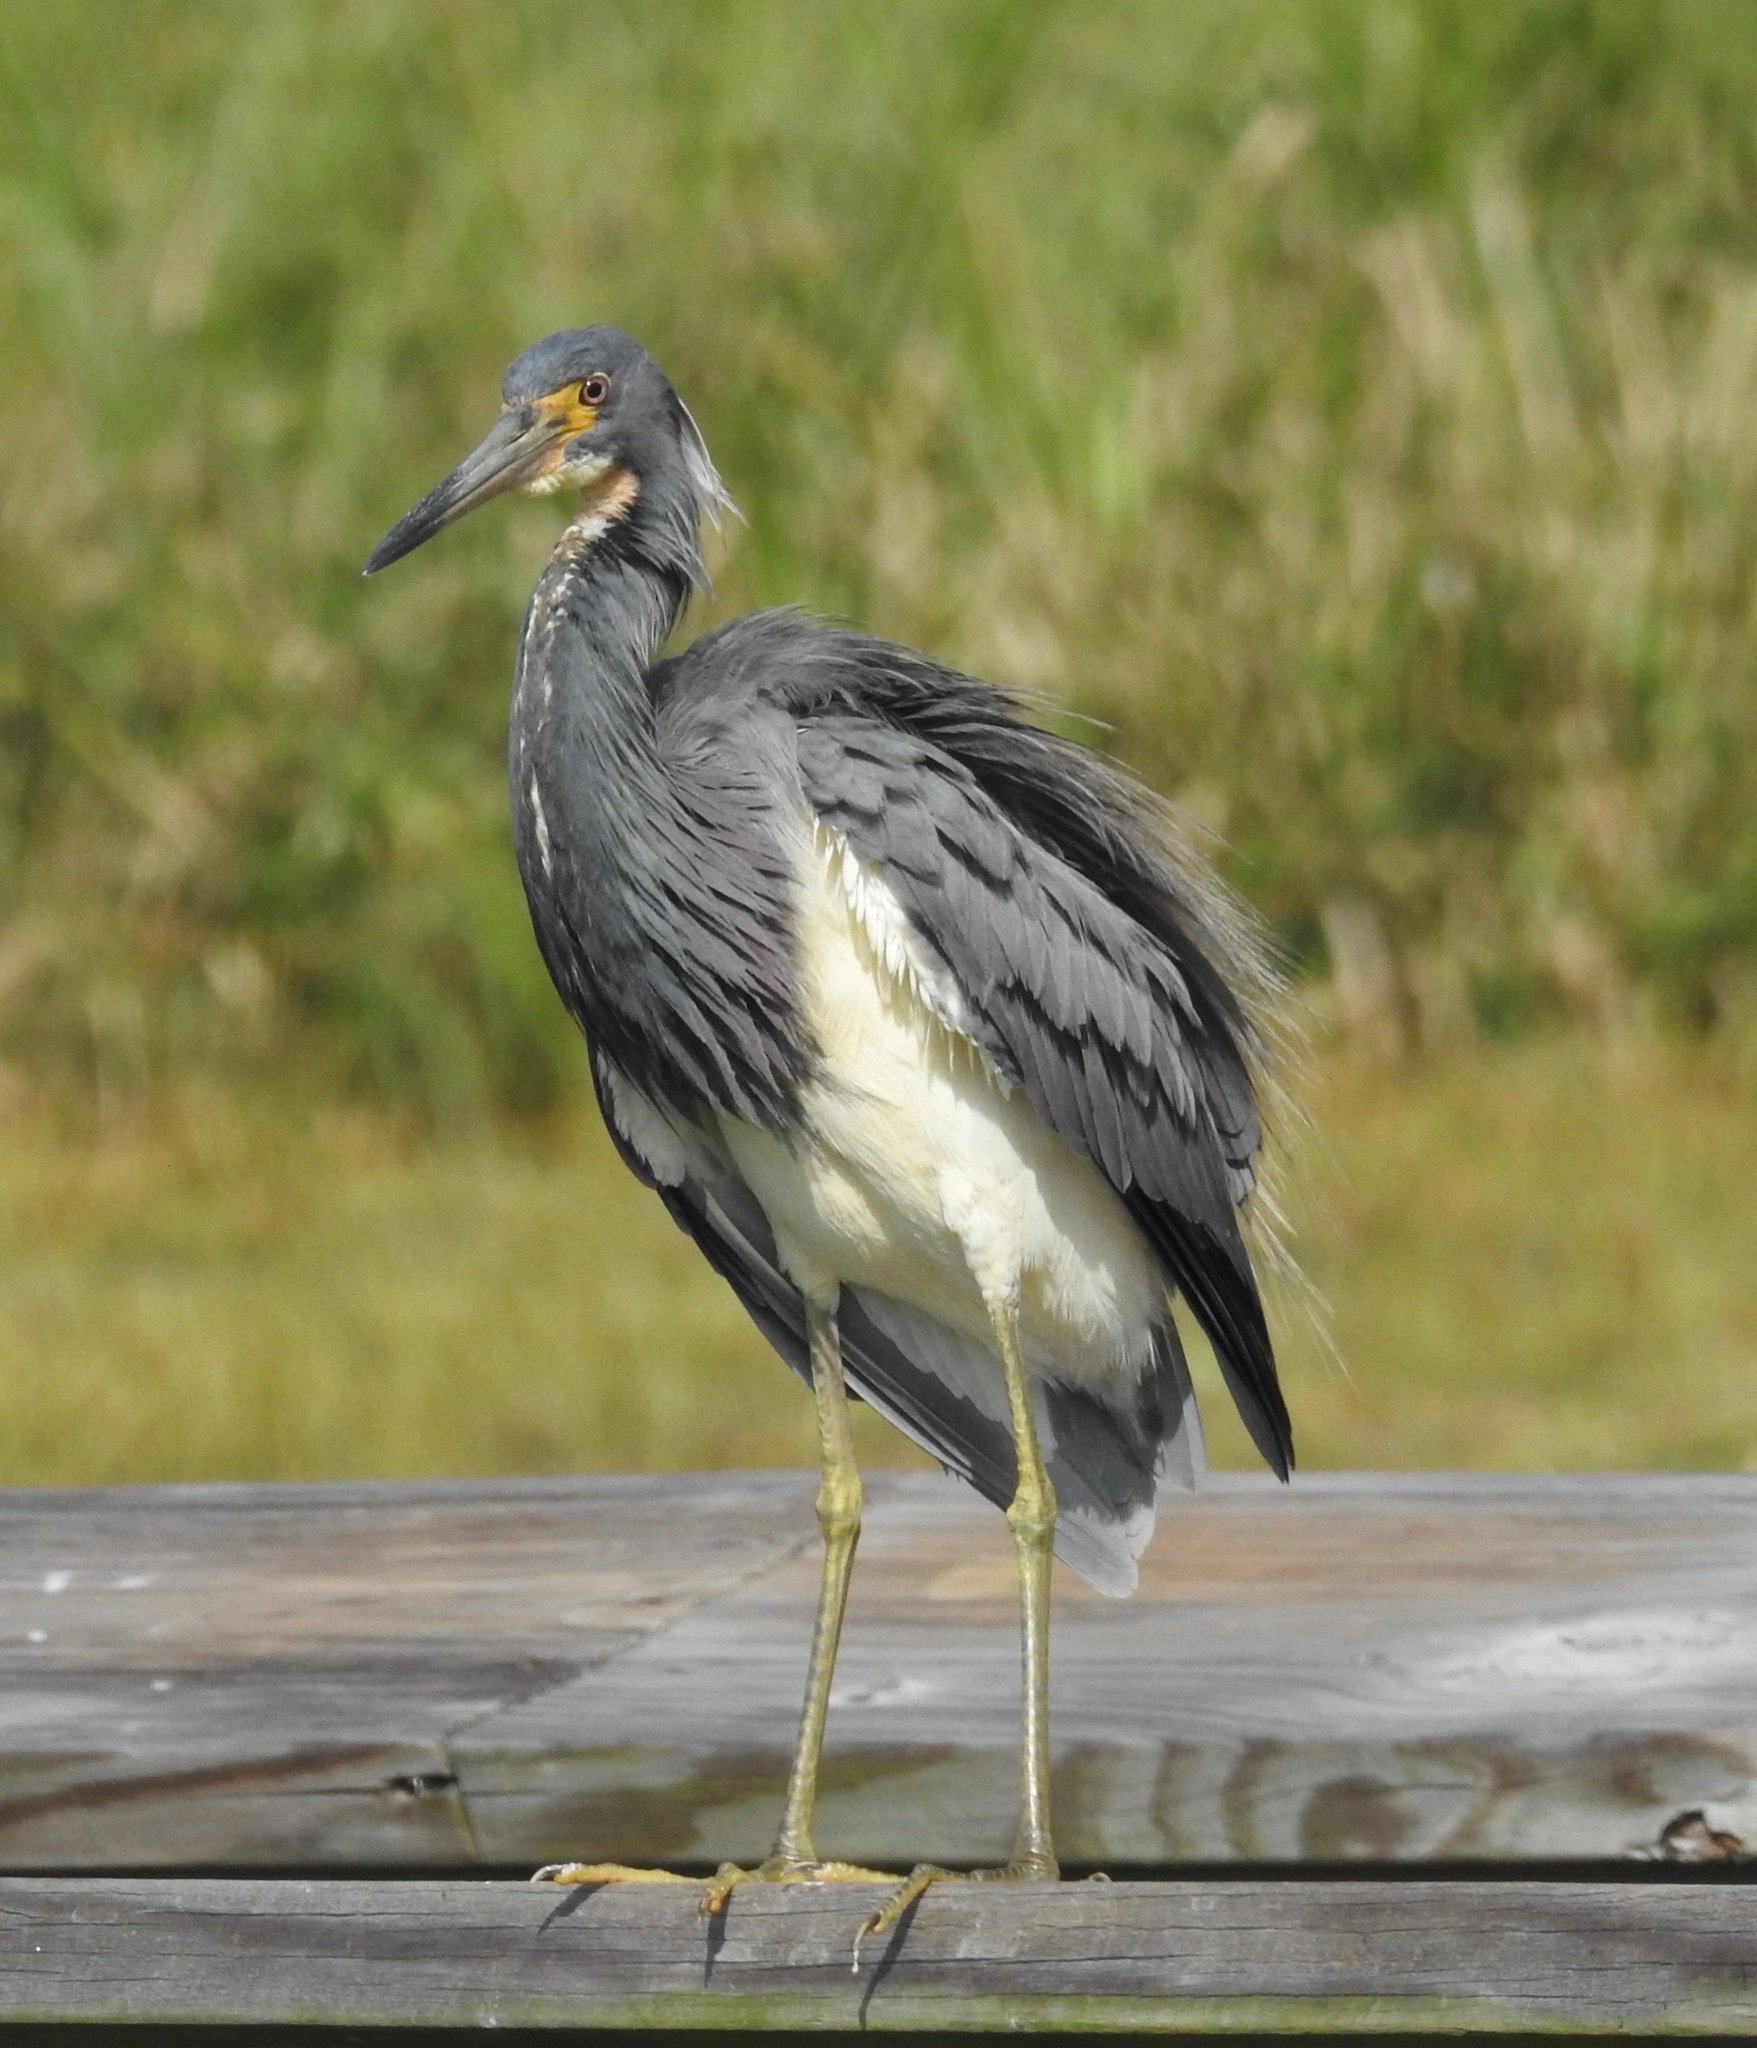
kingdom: Animalia
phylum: Chordata
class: Aves
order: Pelecaniformes
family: Ardeidae
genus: Egretta
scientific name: Egretta tricolor
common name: Tricolored heron
